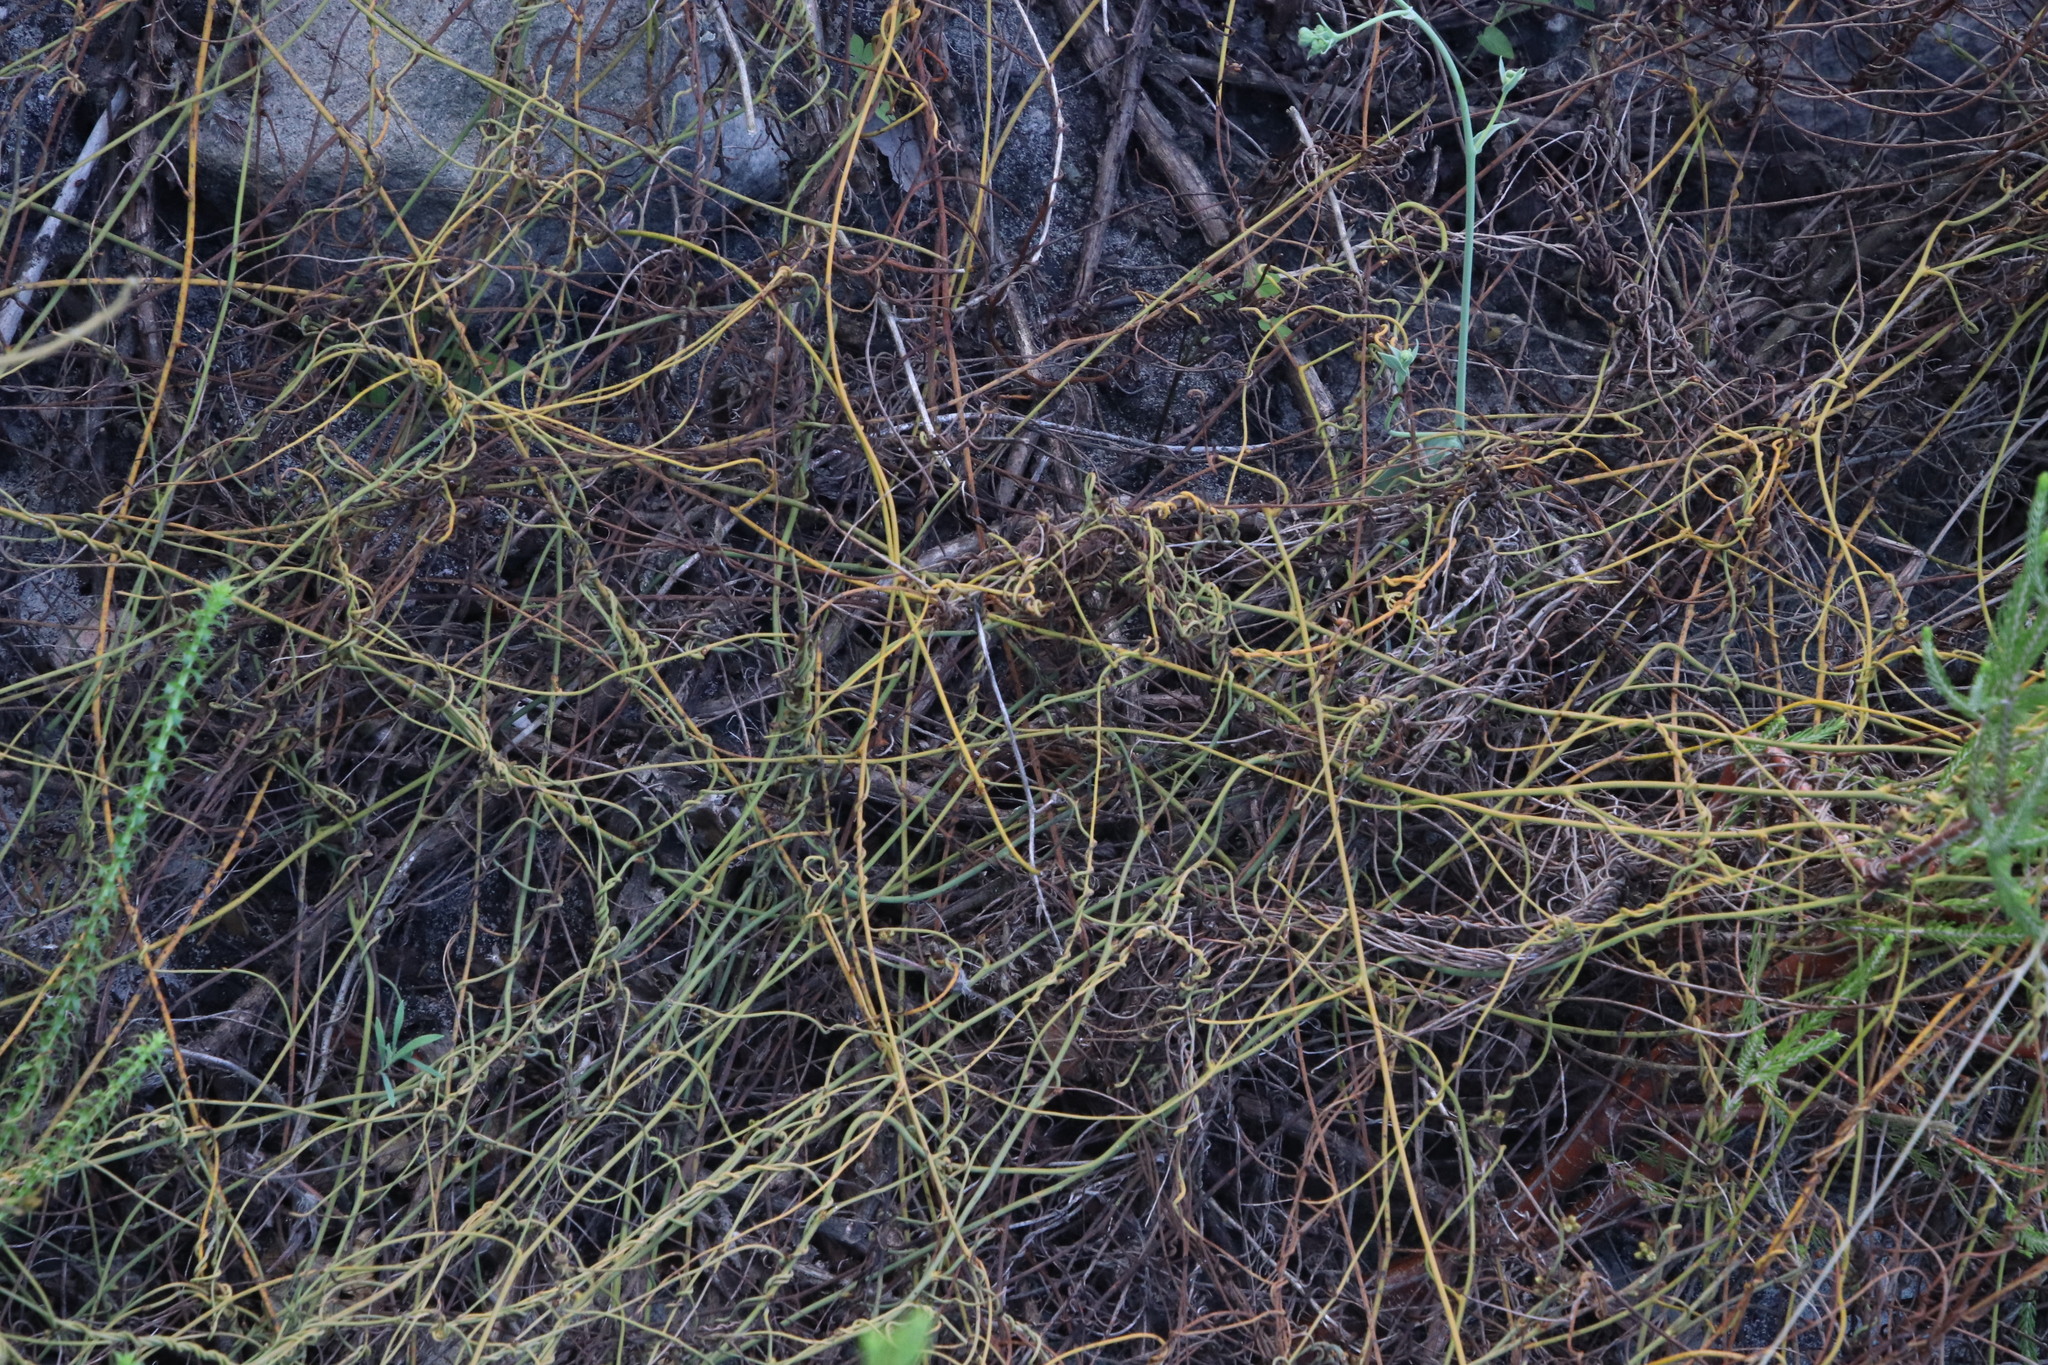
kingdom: Plantae
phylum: Tracheophyta
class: Magnoliopsida
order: Laurales
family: Lauraceae
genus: Cassytha
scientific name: Cassytha ciliolata
